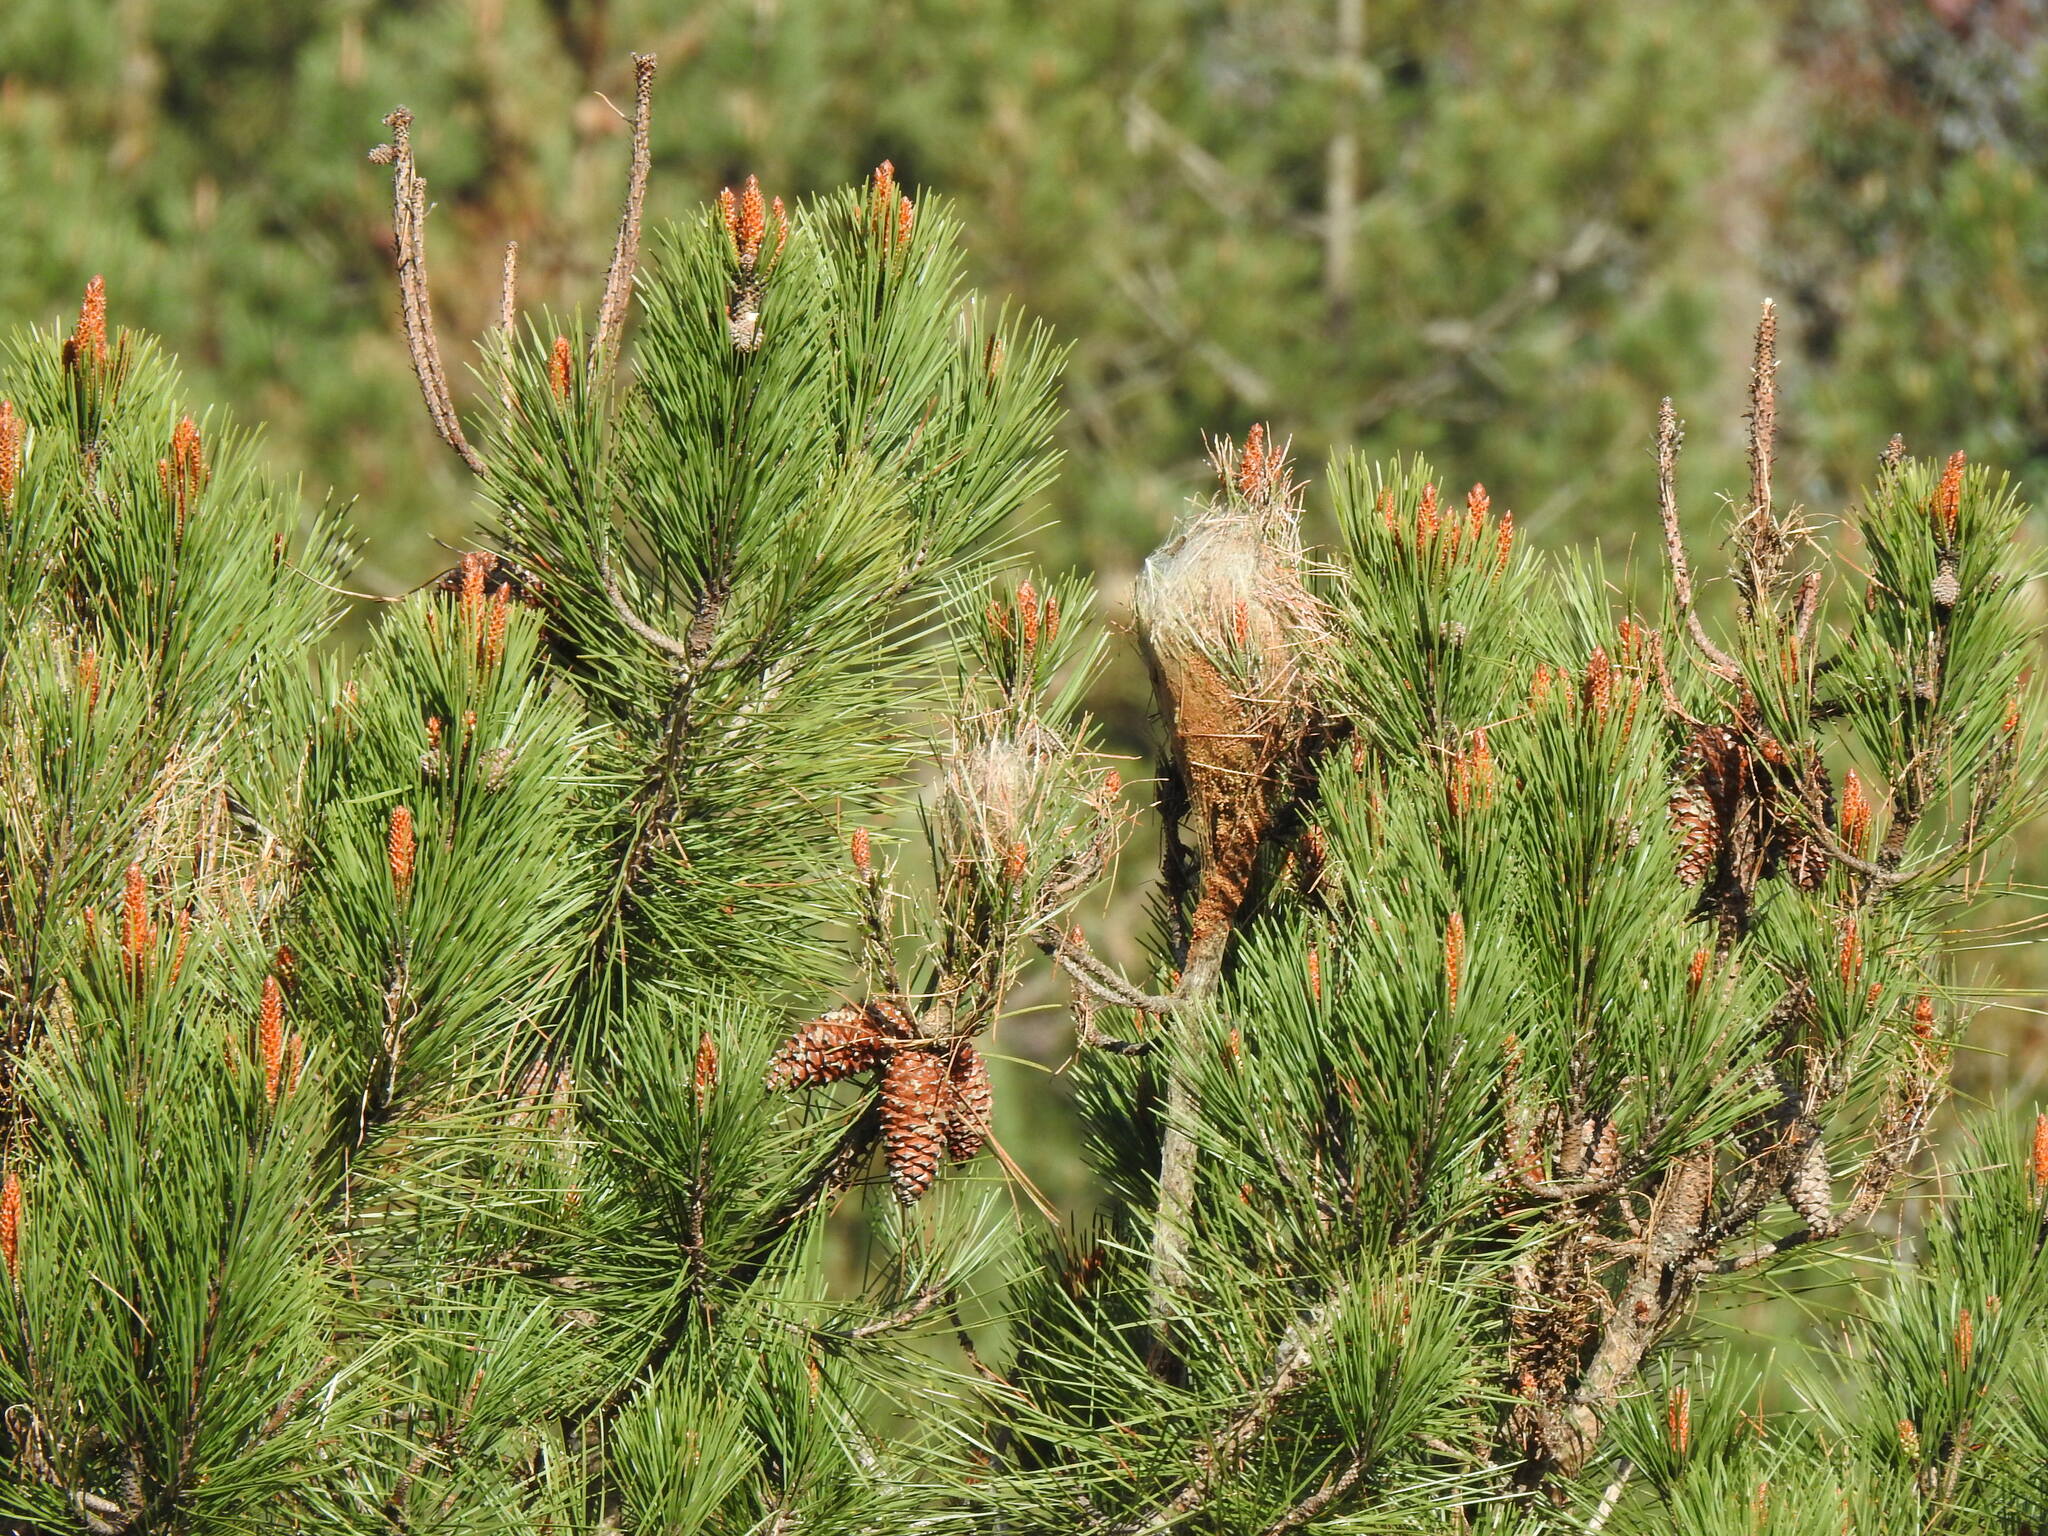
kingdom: Animalia
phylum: Arthropoda
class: Insecta
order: Lepidoptera
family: Notodontidae
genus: Thaumetopoea
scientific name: Thaumetopoea pityocampa
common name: Pine processionary
